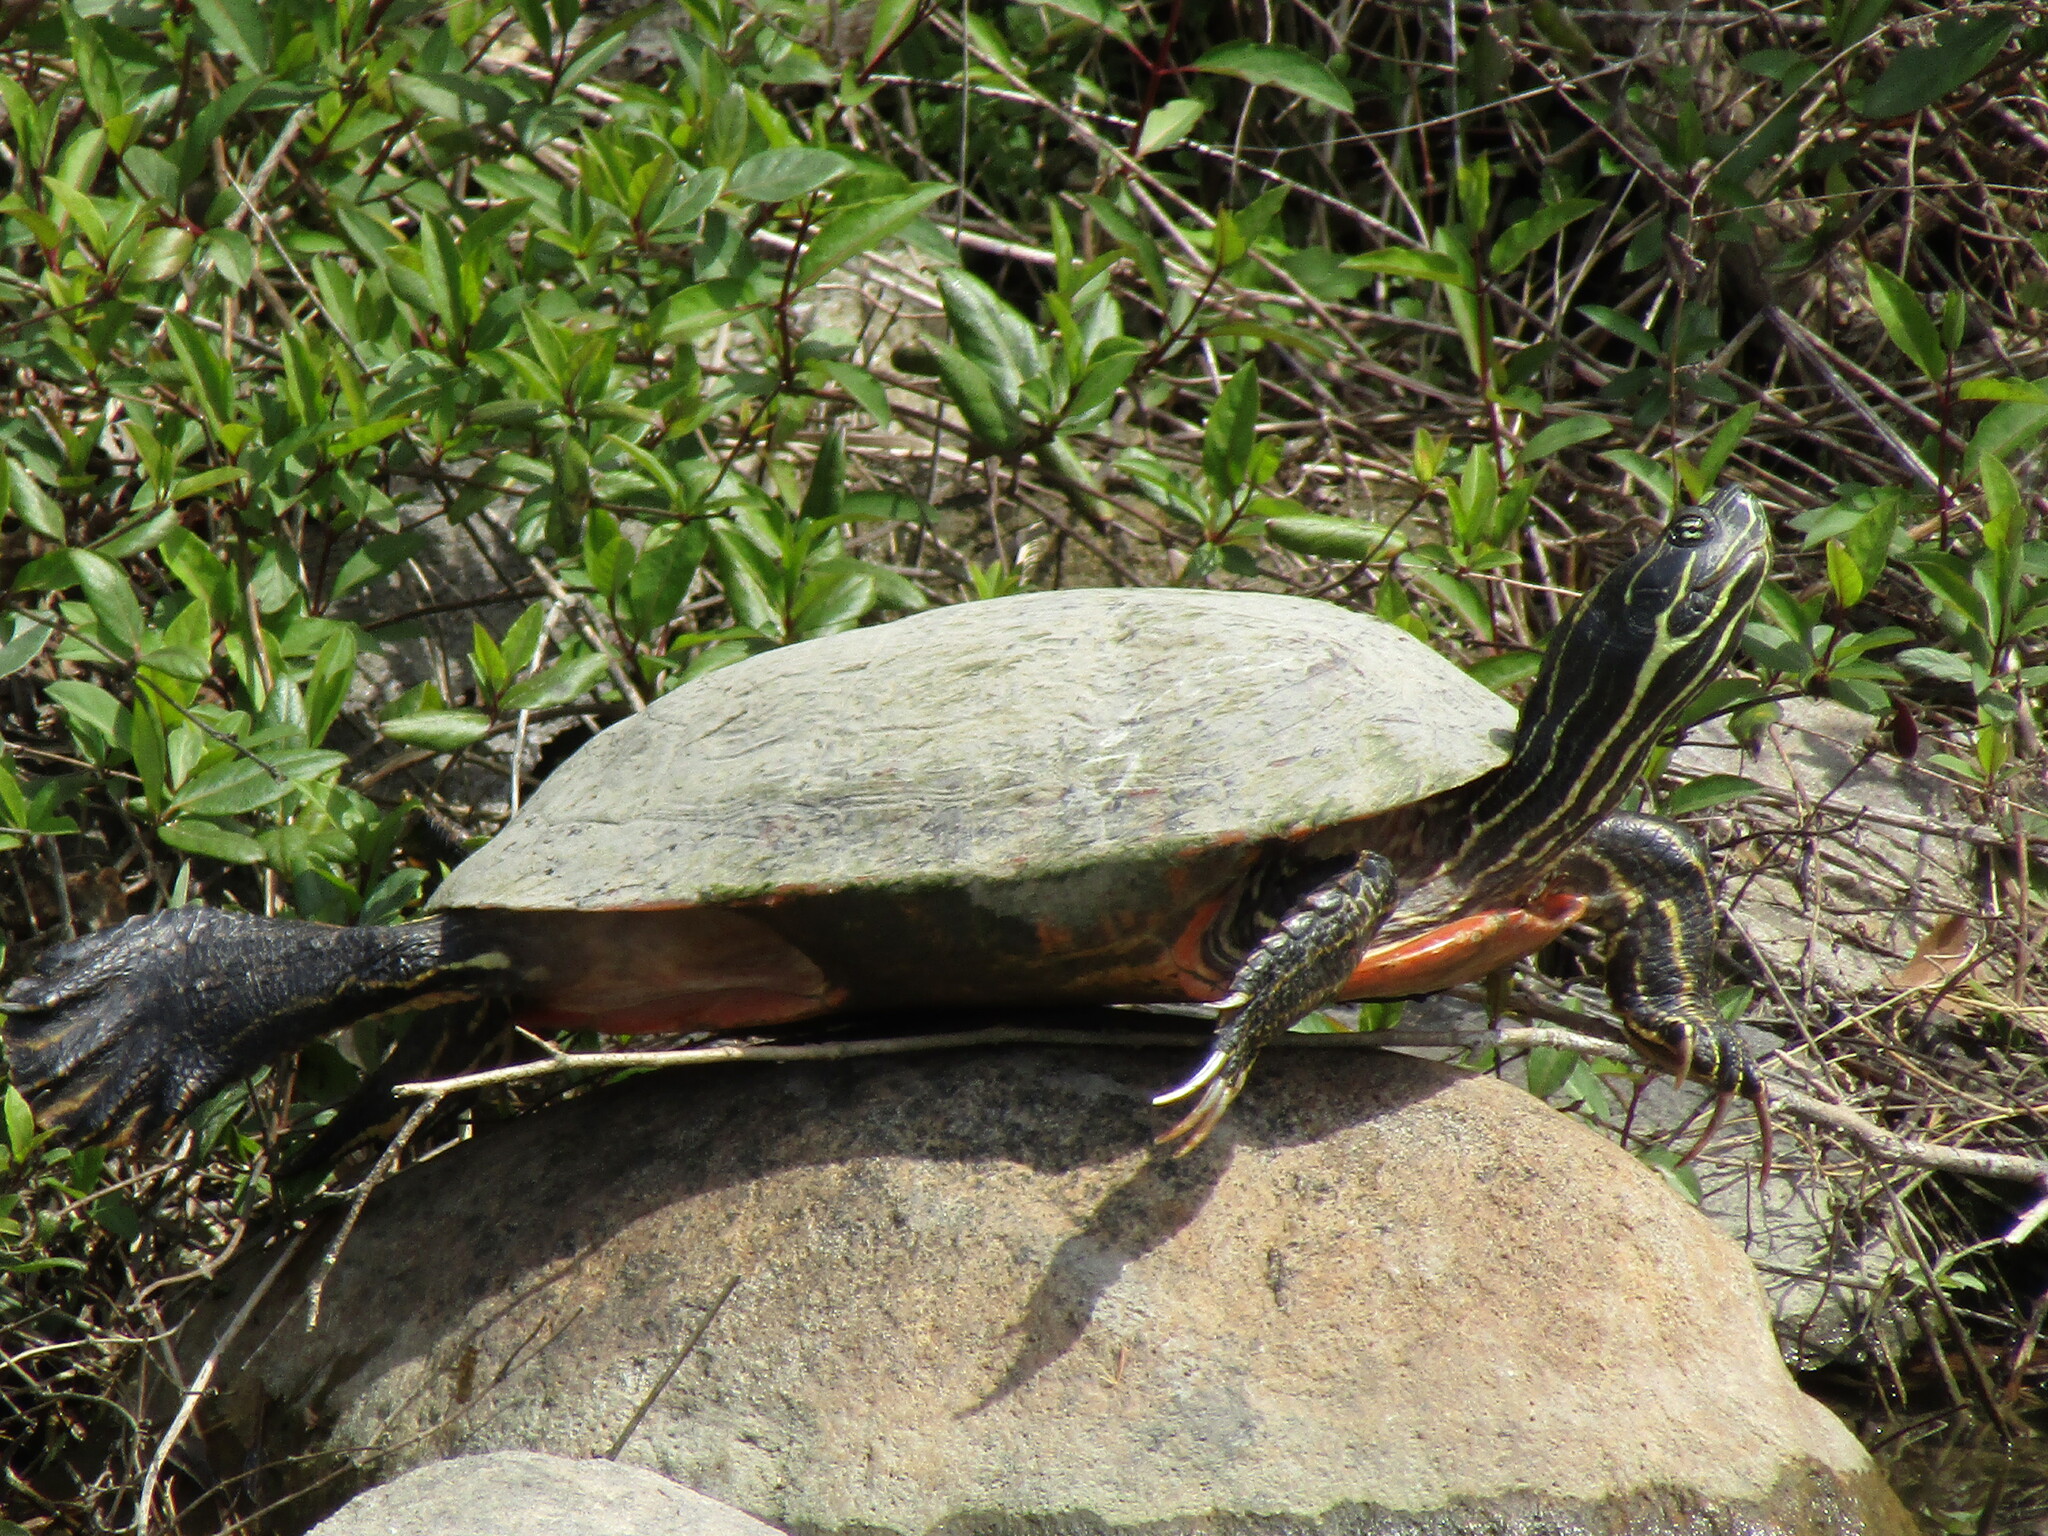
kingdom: Animalia
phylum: Chordata
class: Testudines
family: Emydidae
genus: Pseudemys
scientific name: Pseudemys rubriventris
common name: American red-bellied turtle
